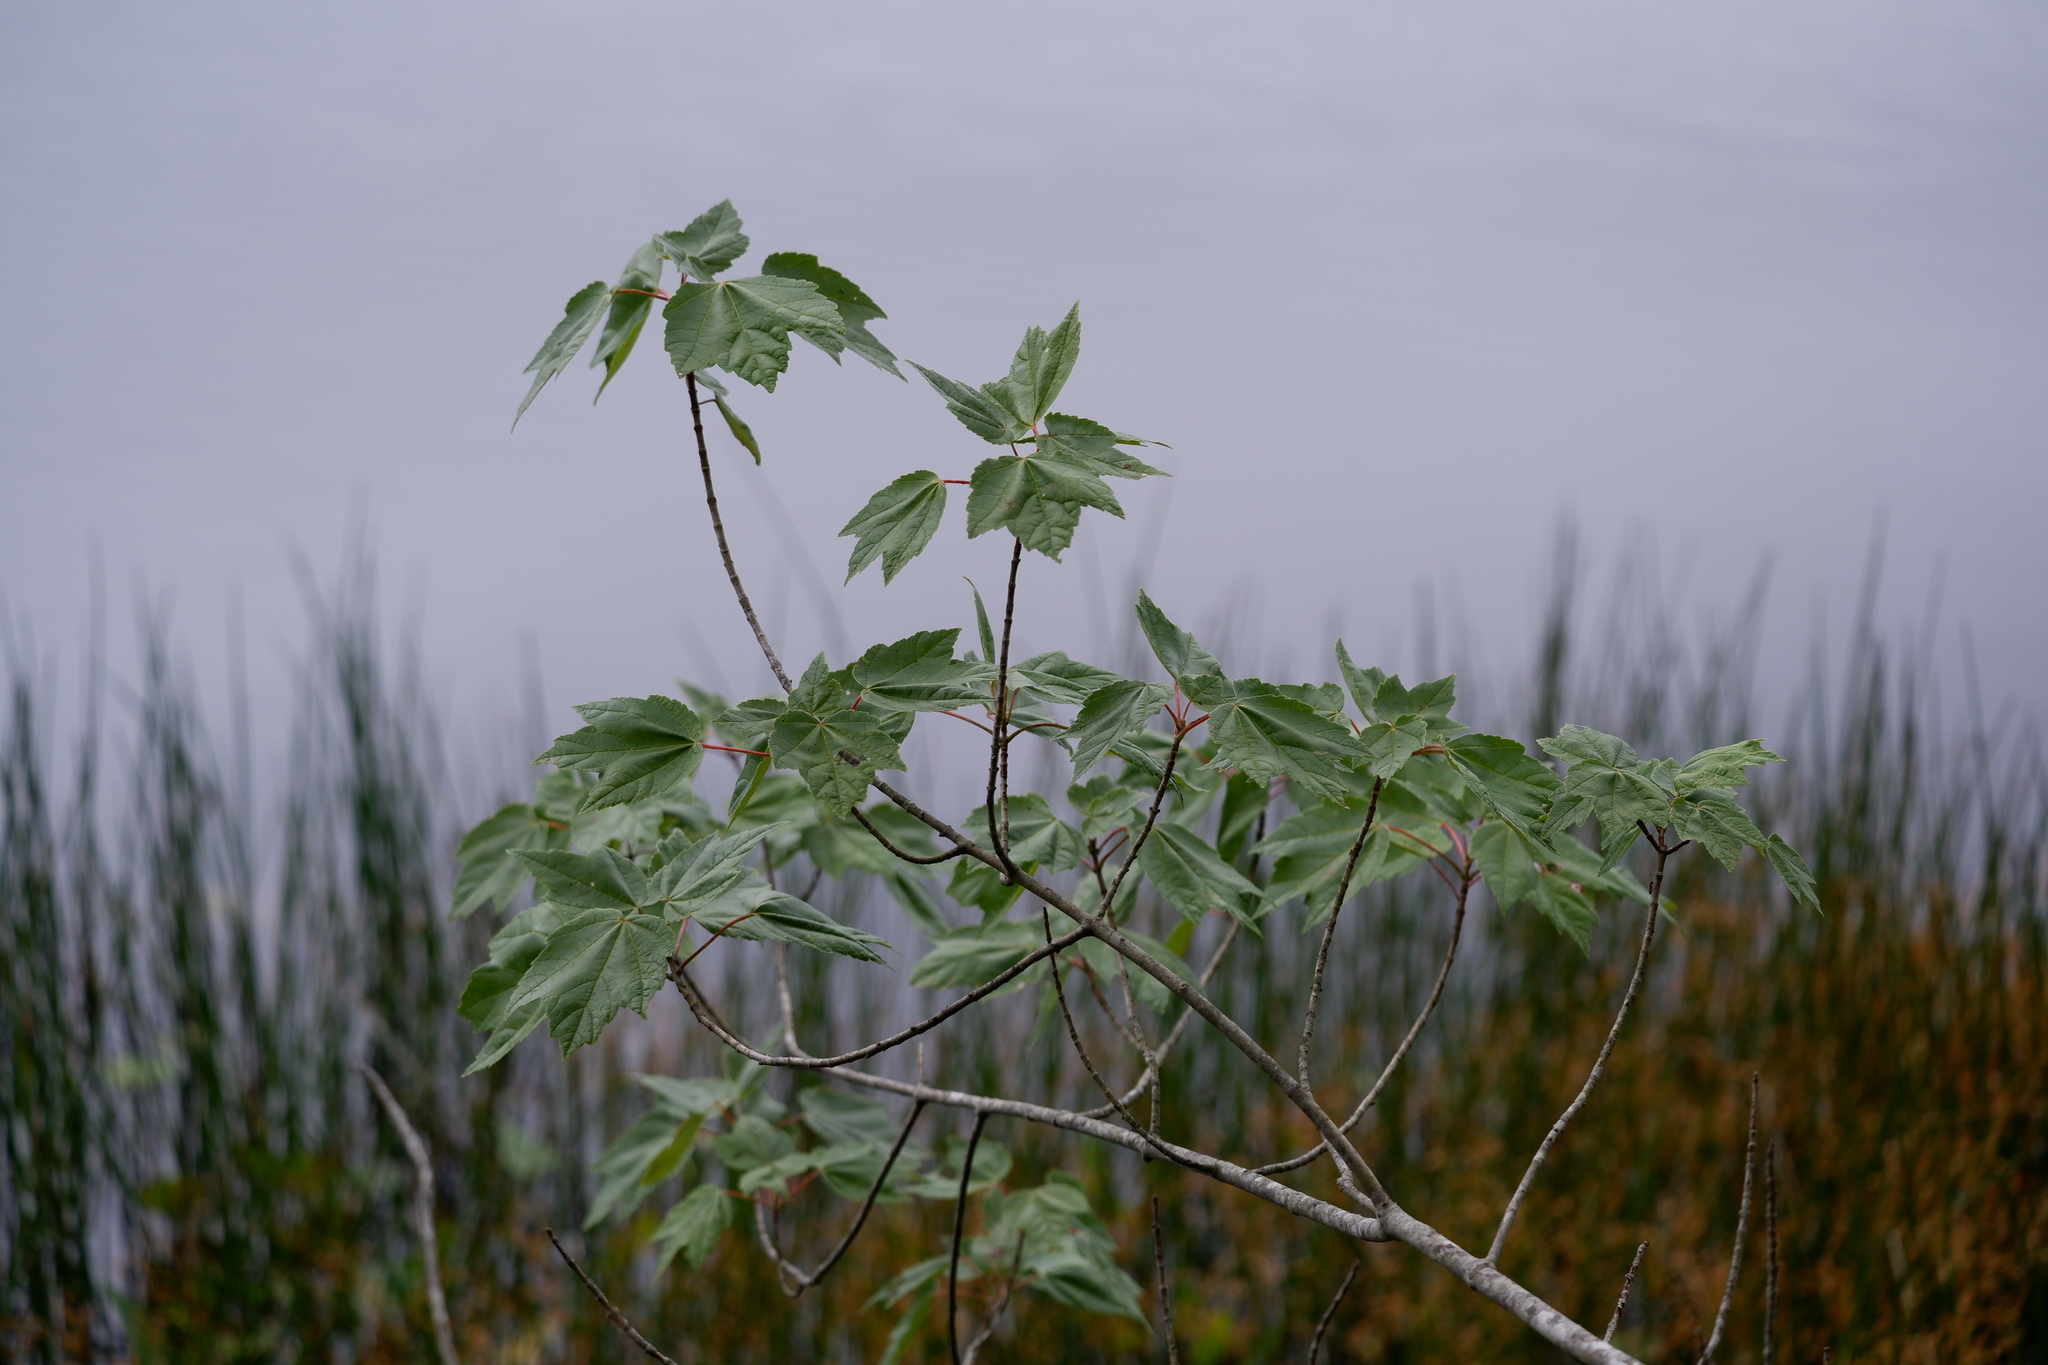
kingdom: Plantae
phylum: Tracheophyta
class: Magnoliopsida
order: Sapindales
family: Sapindaceae
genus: Acer
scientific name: Acer rubrum
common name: Red maple
